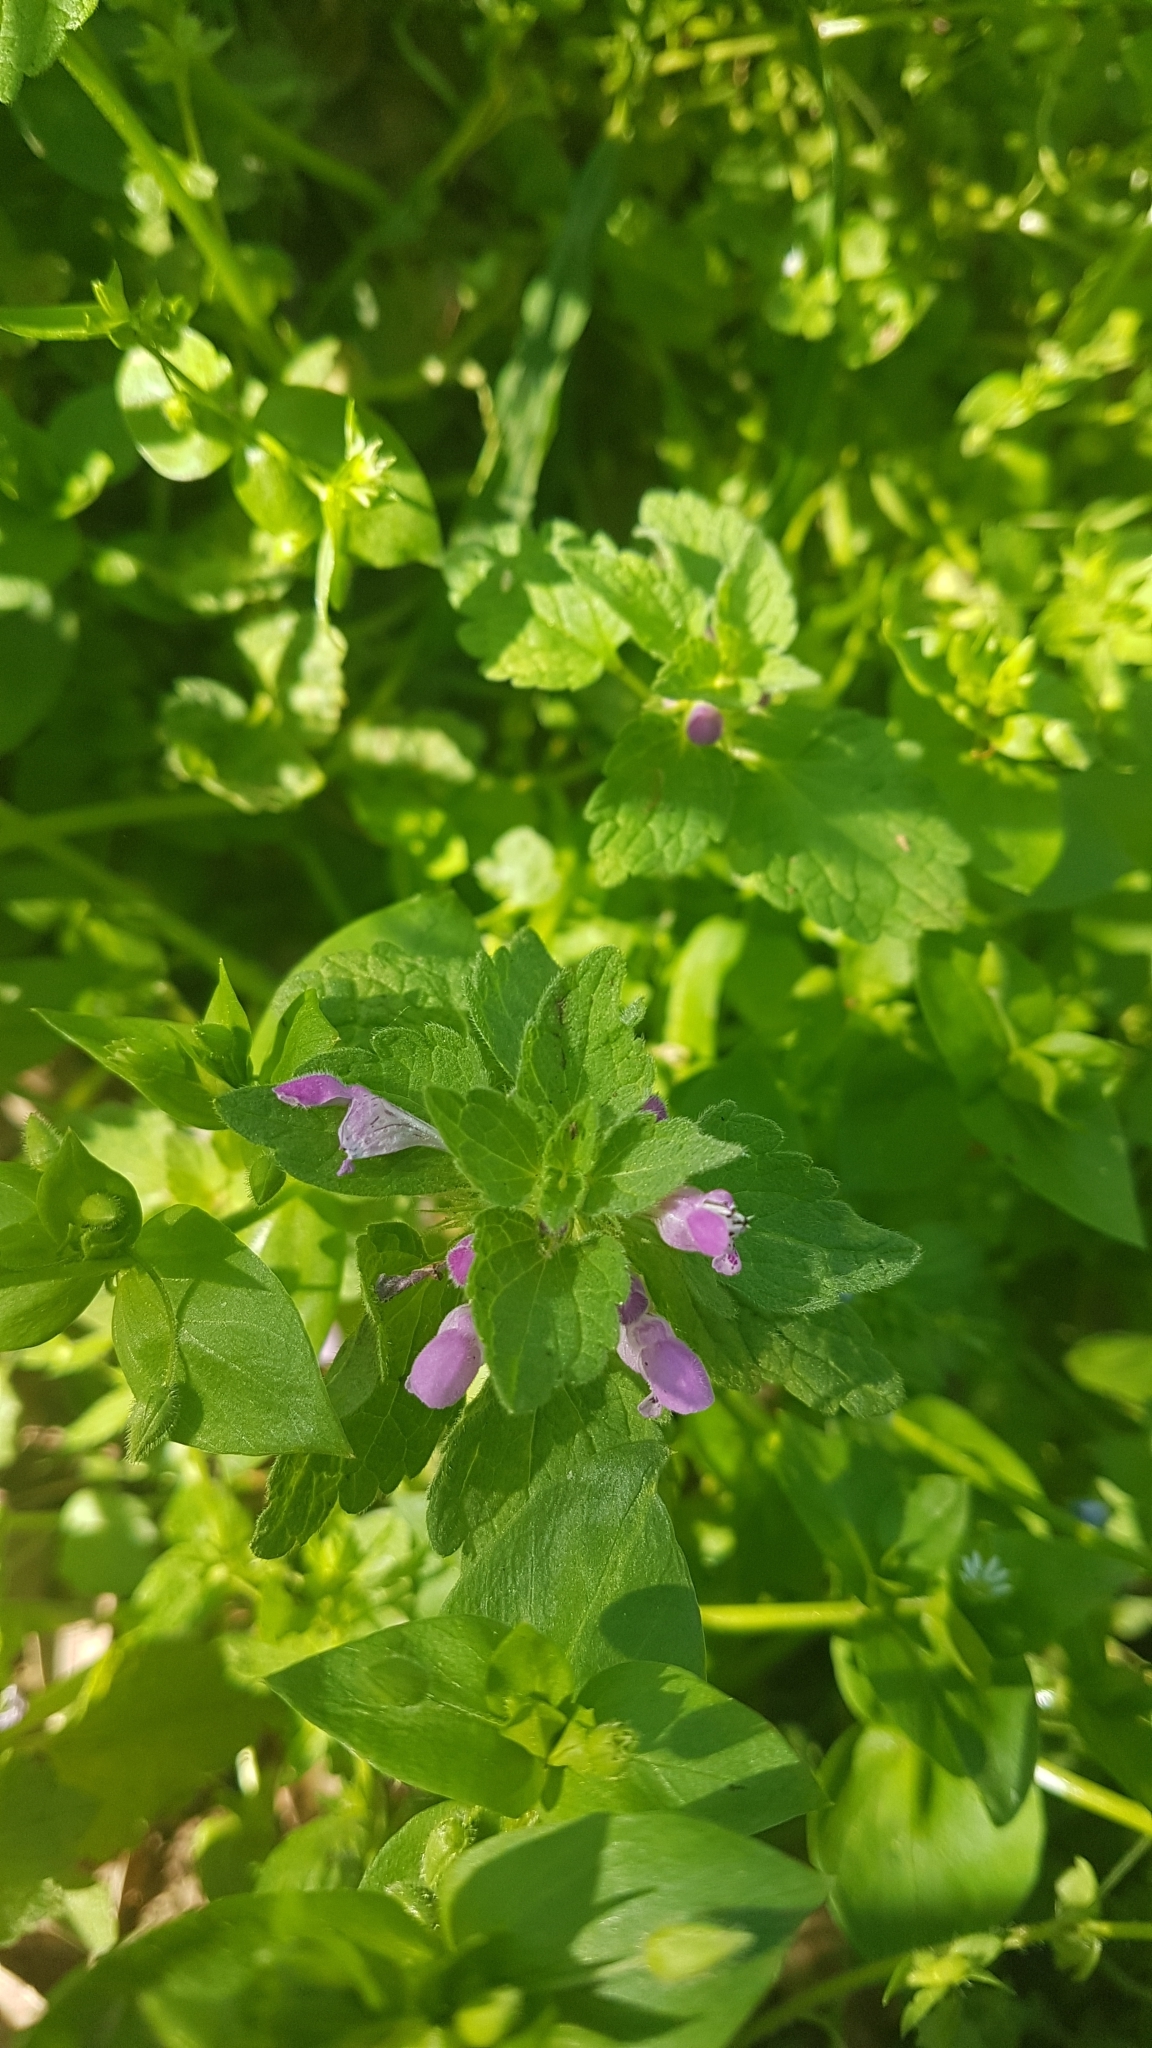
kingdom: Plantae
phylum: Tracheophyta
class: Magnoliopsida
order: Lamiales
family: Lamiaceae
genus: Lamium
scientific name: Lamium purpureum
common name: Red dead-nettle
